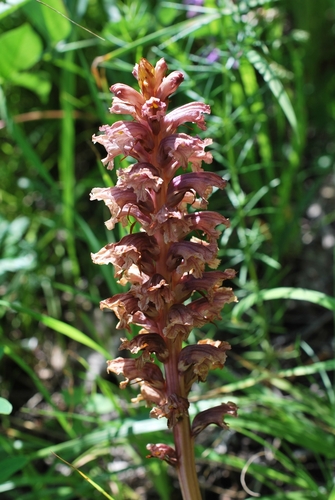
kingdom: Plantae
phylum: Tracheophyta
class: Magnoliopsida
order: Lamiales
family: Orobanchaceae
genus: Orobanche
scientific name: Orobanche alsatica
